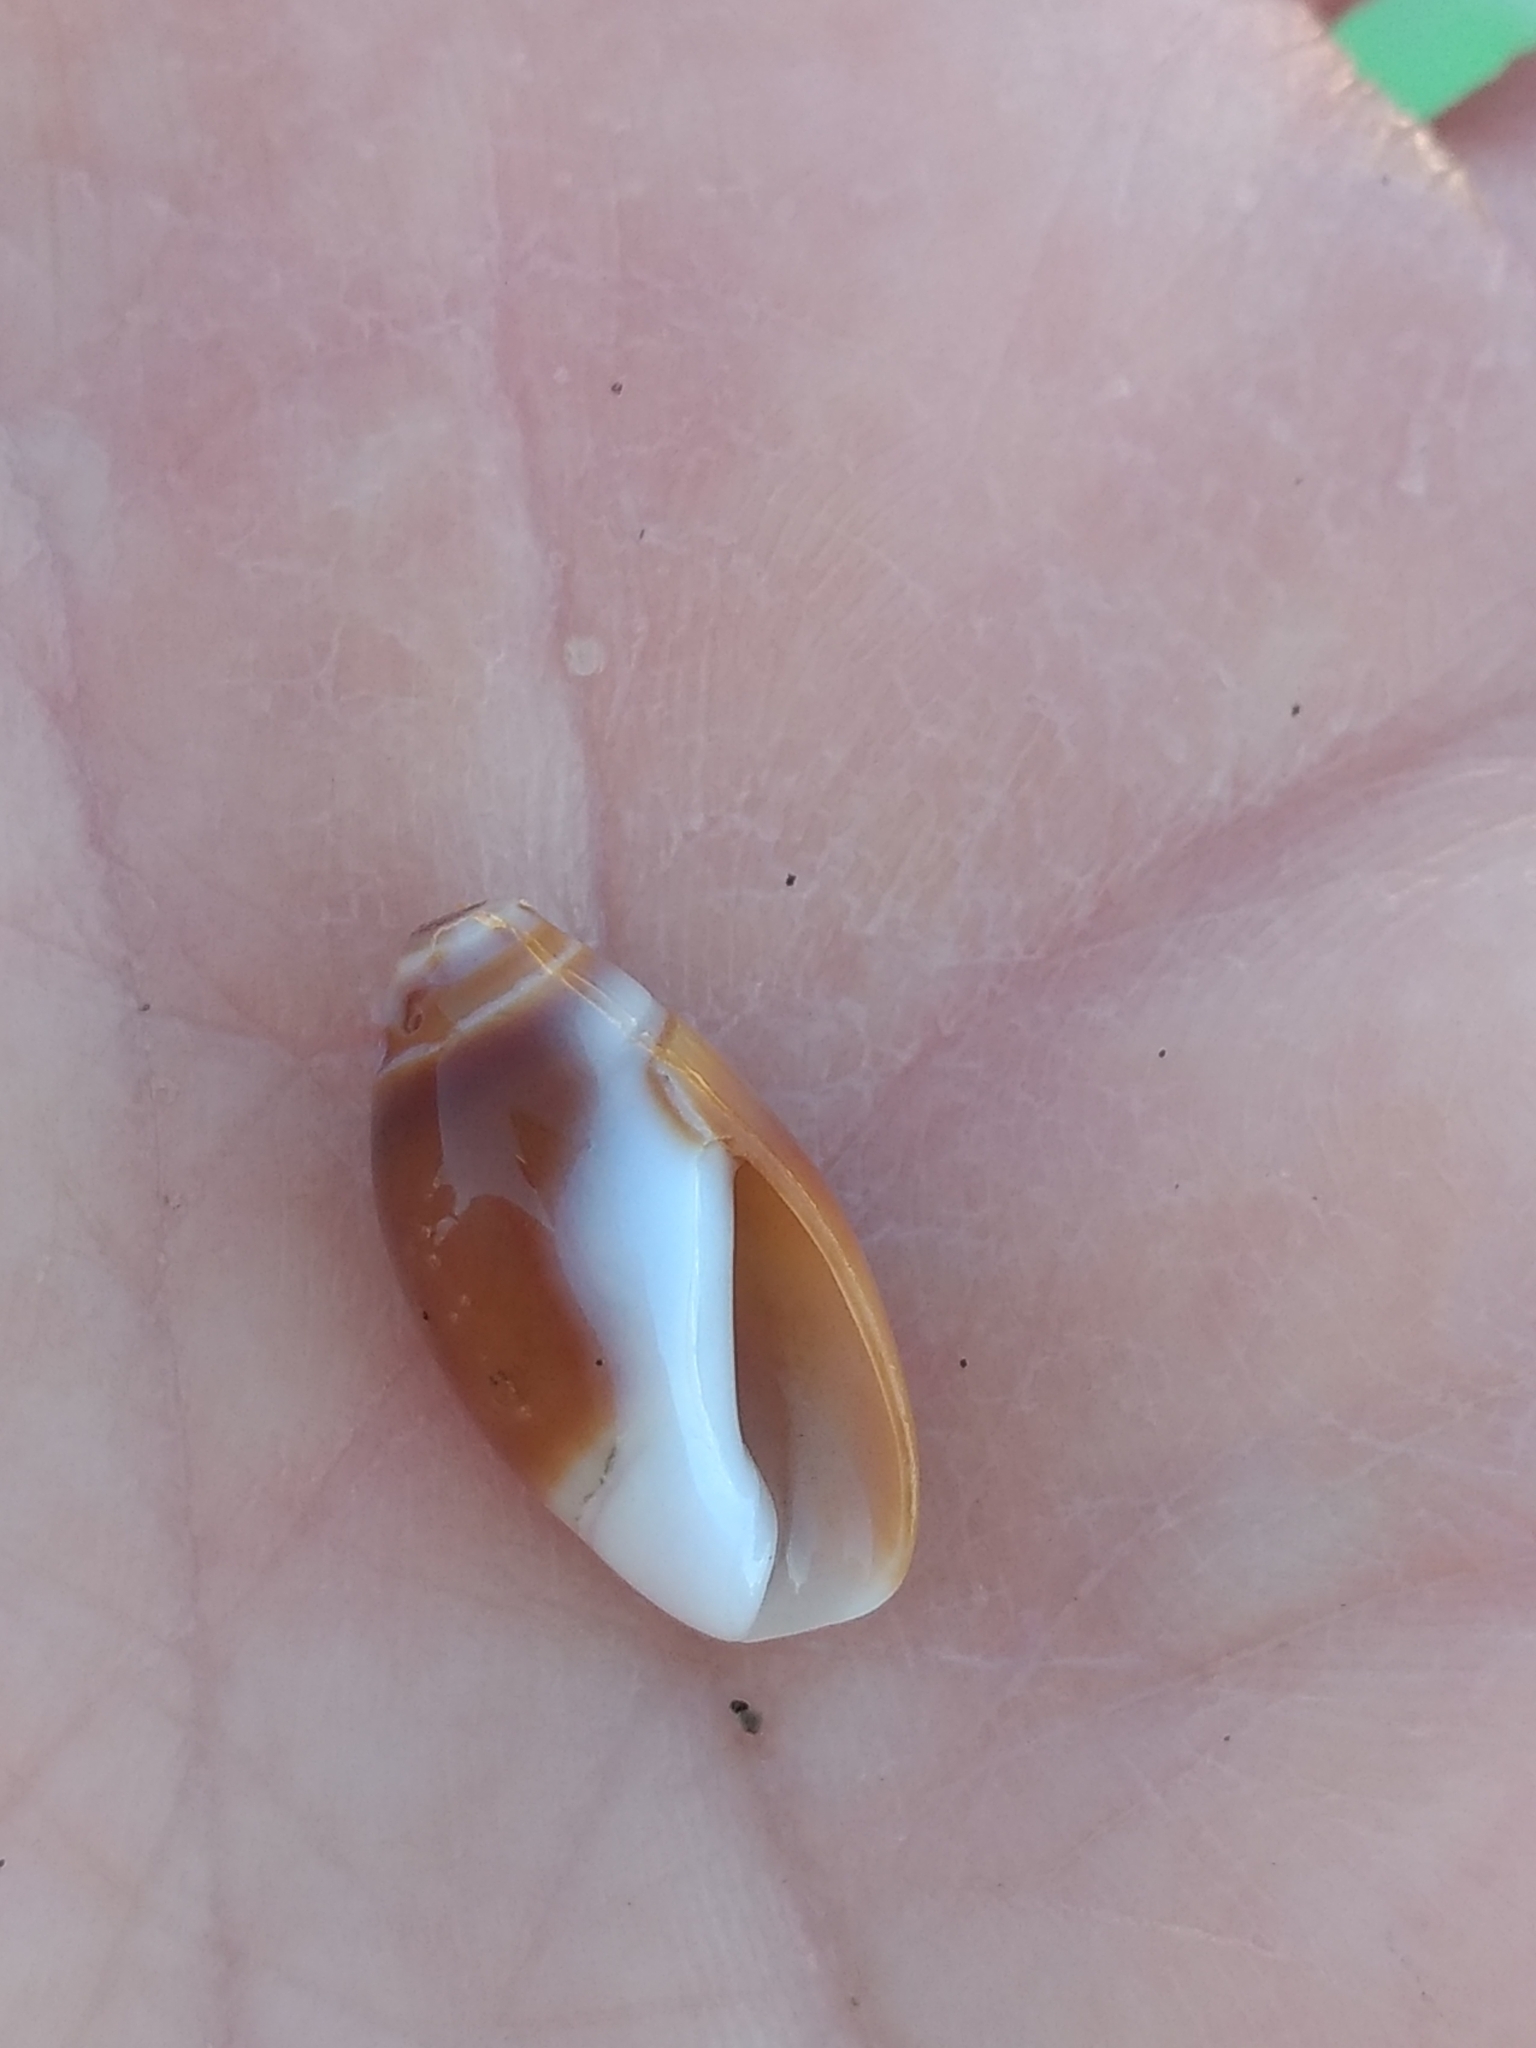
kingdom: Animalia
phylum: Mollusca
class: Gastropoda
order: Neogastropoda
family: Olividae
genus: Callianax
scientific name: Callianax biplicata
